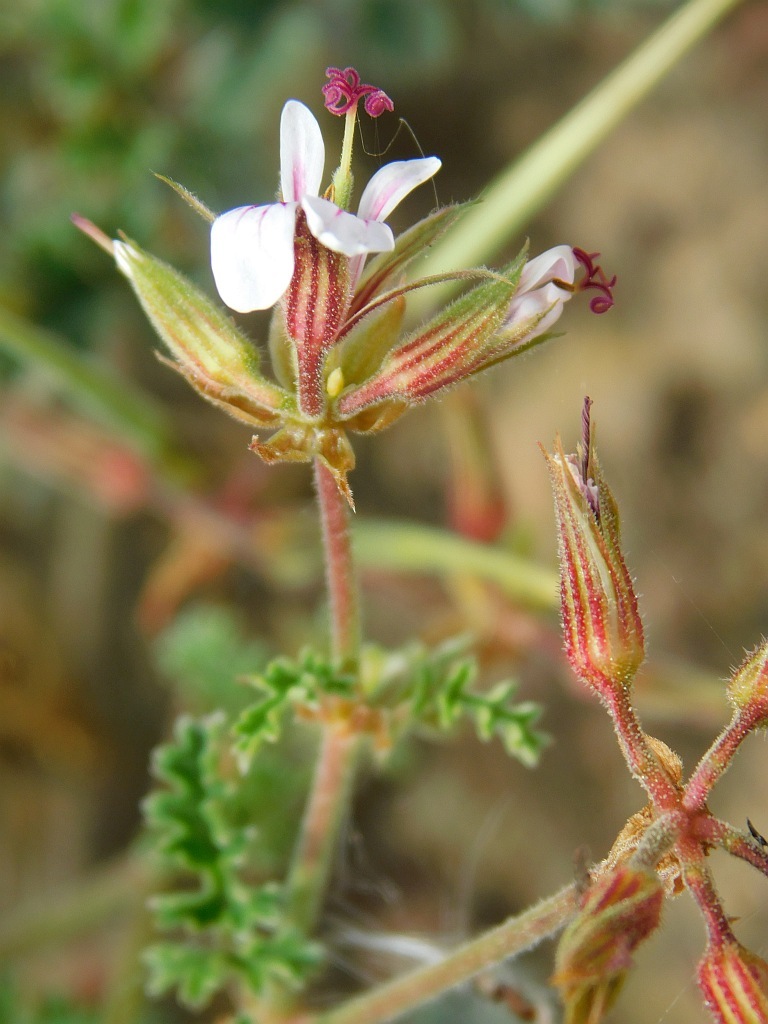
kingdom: Plantae
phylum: Tracheophyta
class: Magnoliopsida
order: Geraniales
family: Geraniaceae
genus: Pelargonium
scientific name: Pelargonium candicans
